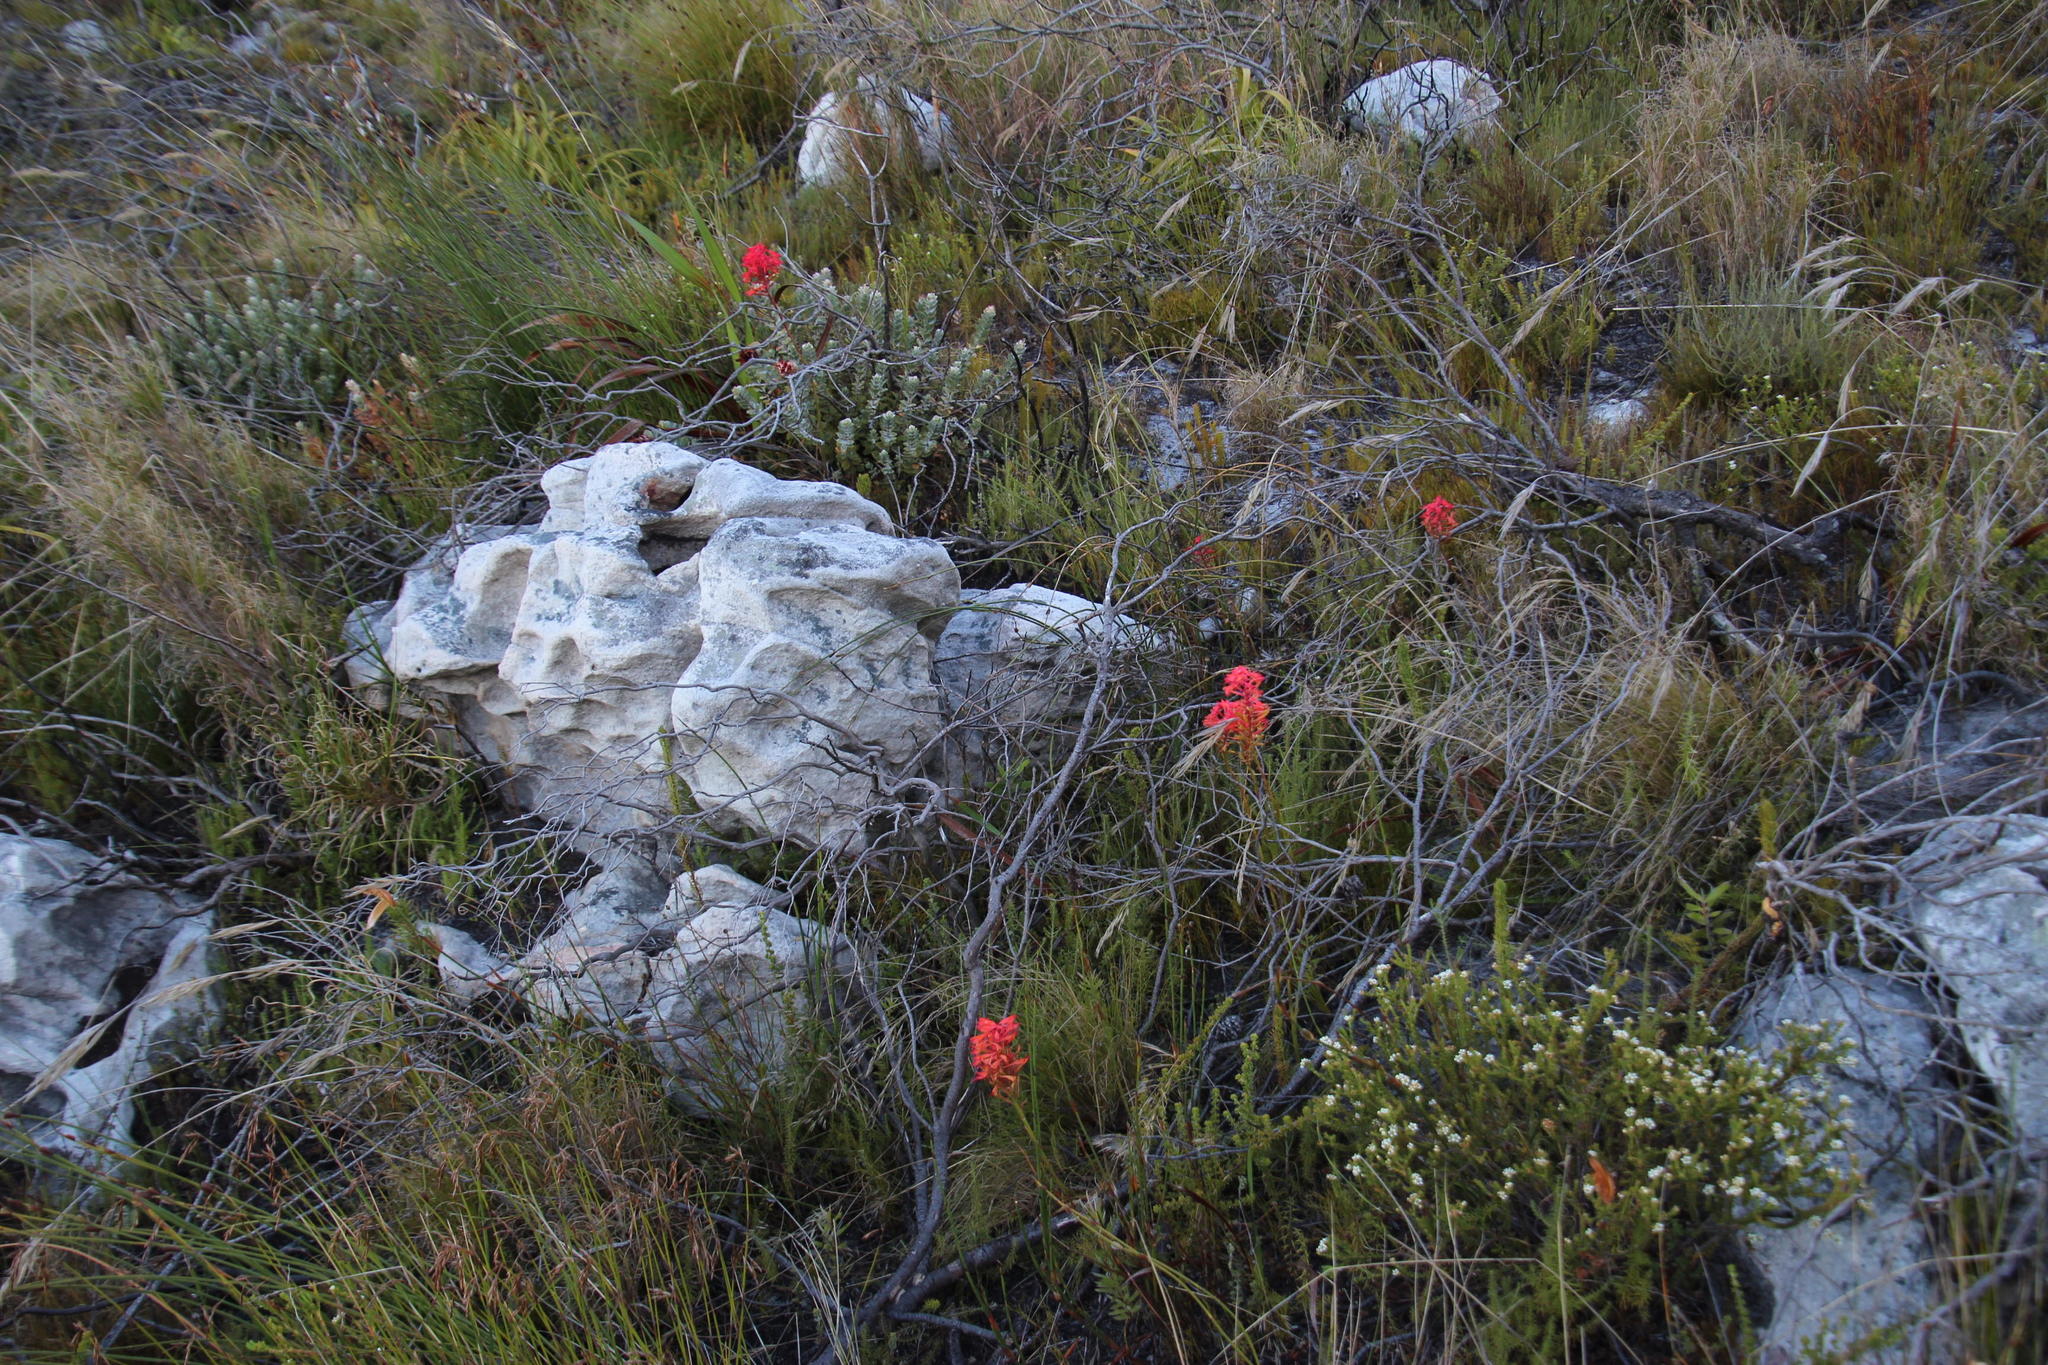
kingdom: Plantae
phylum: Tracheophyta
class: Liliopsida
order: Asparagales
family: Orchidaceae
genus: Disa
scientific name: Disa ferruginea
